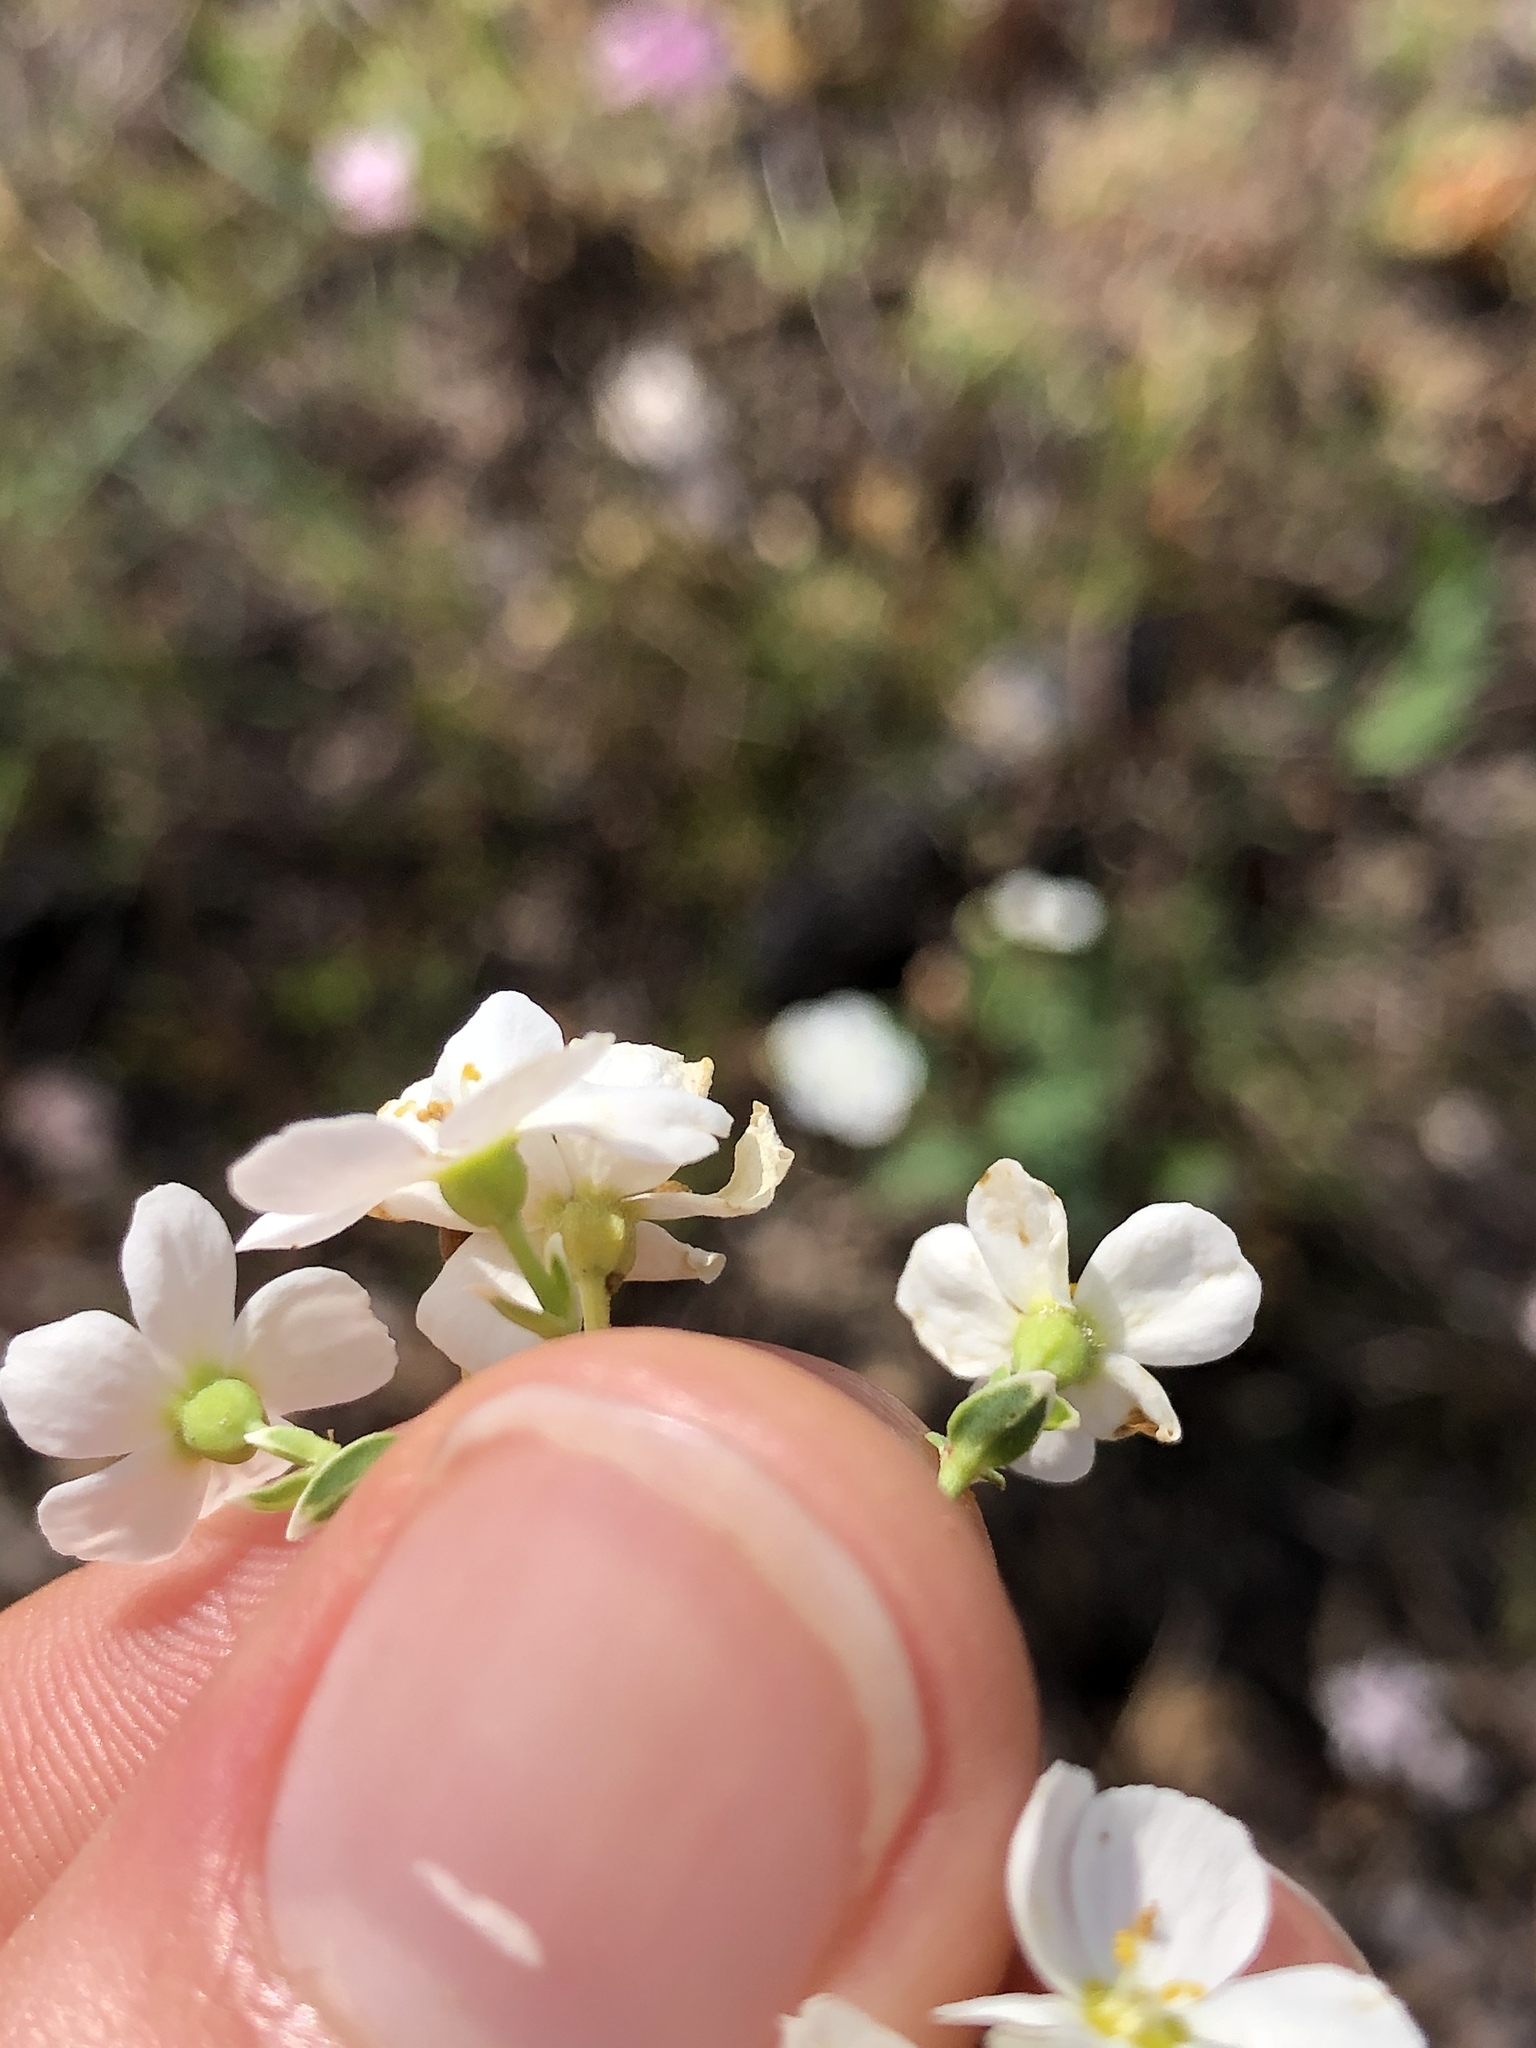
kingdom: Plantae
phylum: Tracheophyta
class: Magnoliopsida
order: Malpighiales
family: Euphorbiaceae
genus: Euphorbia
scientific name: Euphorbia corollata
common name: Flowering spurge
